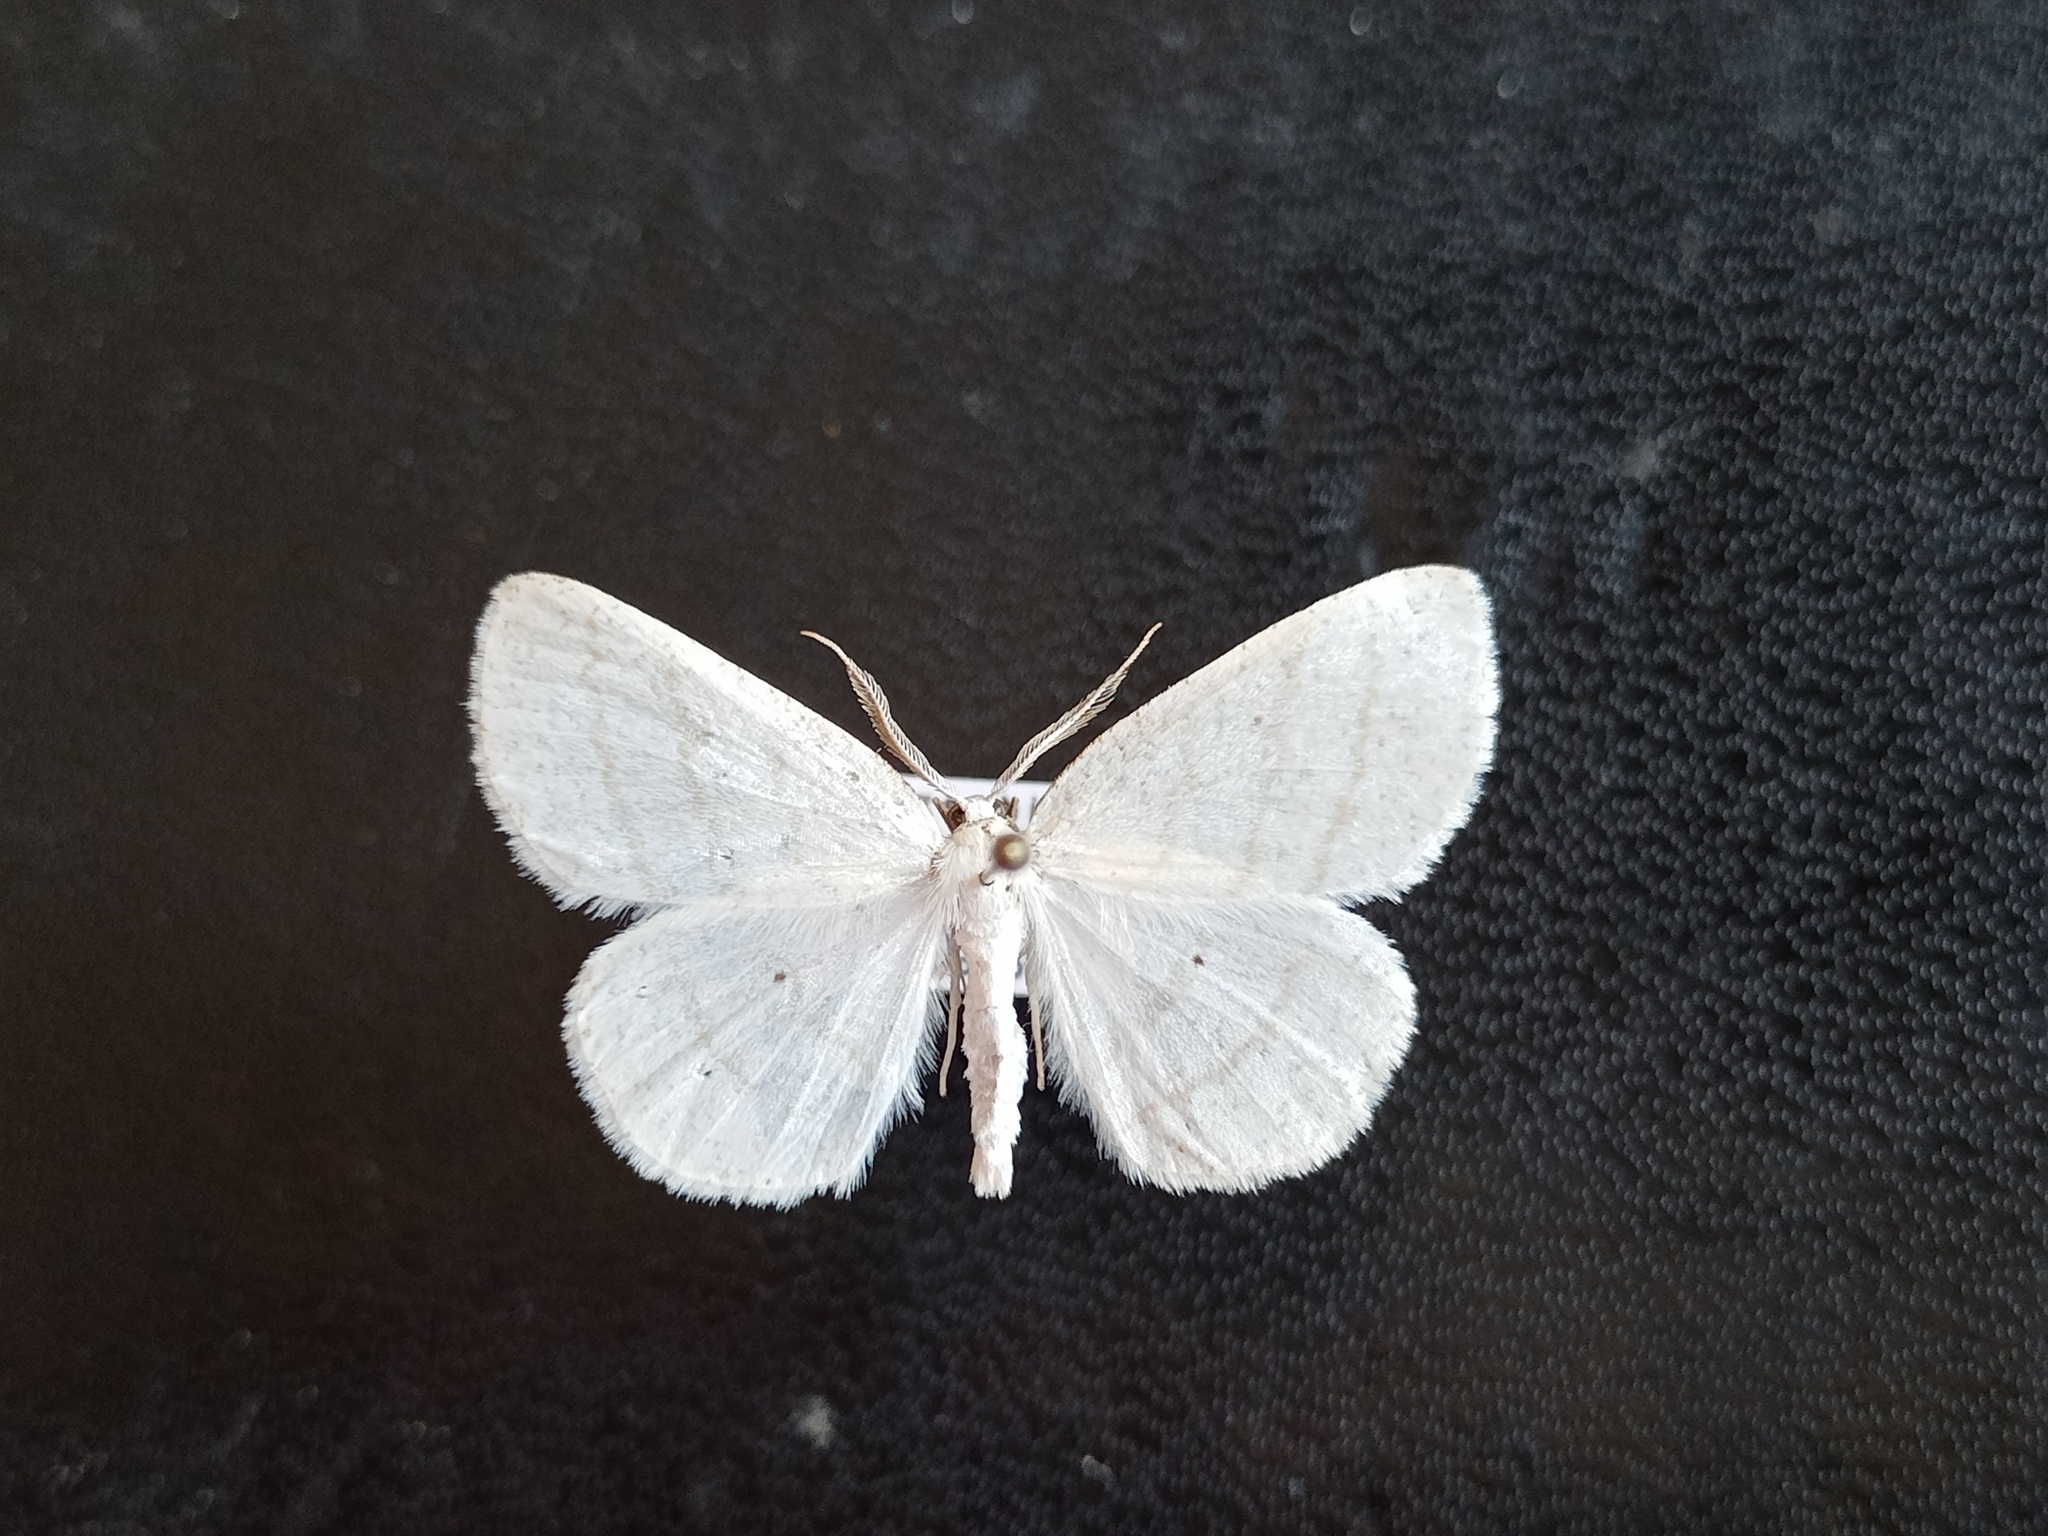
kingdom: Animalia
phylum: Arthropoda
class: Insecta
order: Lepidoptera
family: Geometridae
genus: Cabera
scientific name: Cabera pusaria
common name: Common white wave
